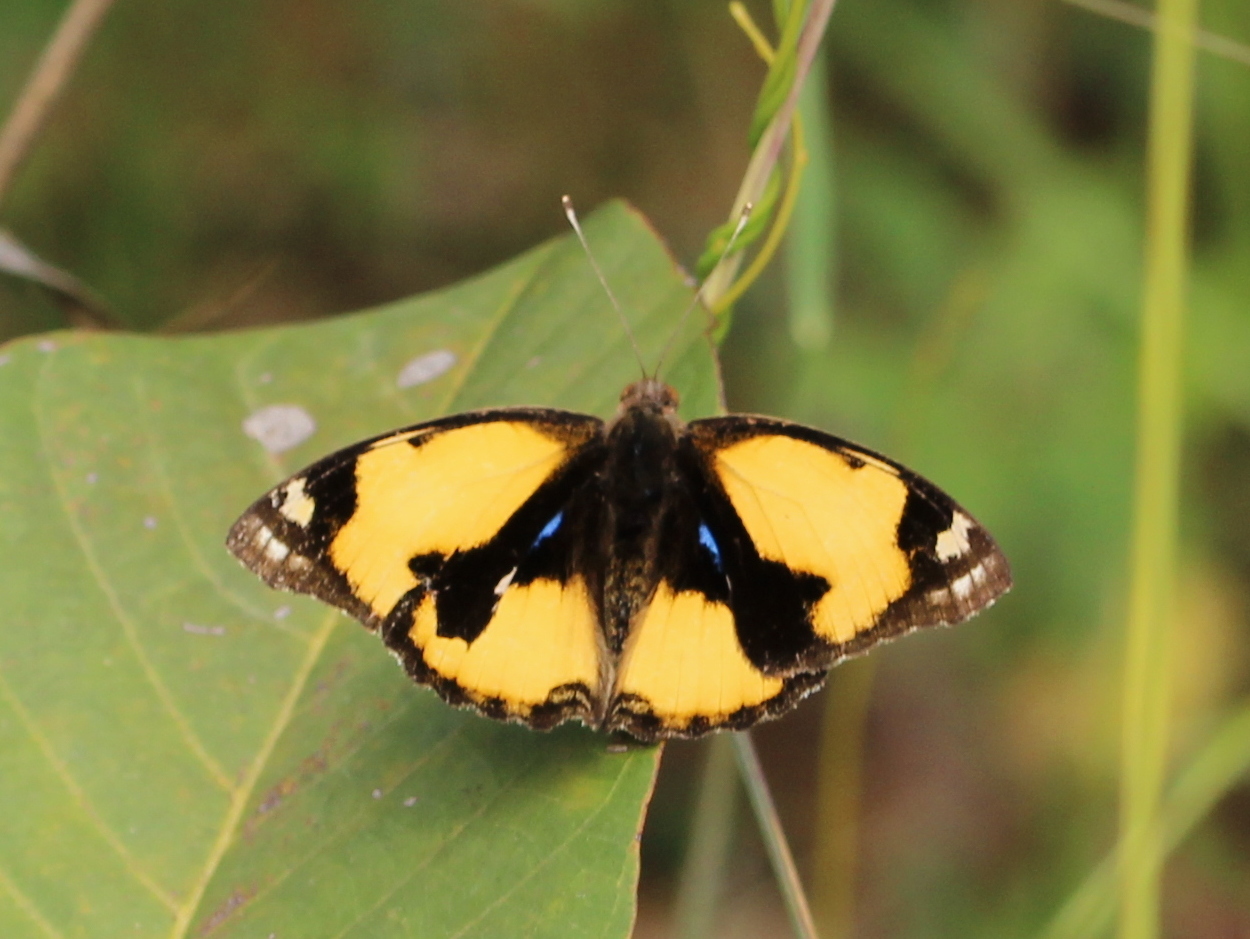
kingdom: Animalia
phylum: Arthropoda
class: Insecta
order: Lepidoptera
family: Nymphalidae
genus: Junonia
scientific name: Junonia hierta
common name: Yellow pansy
